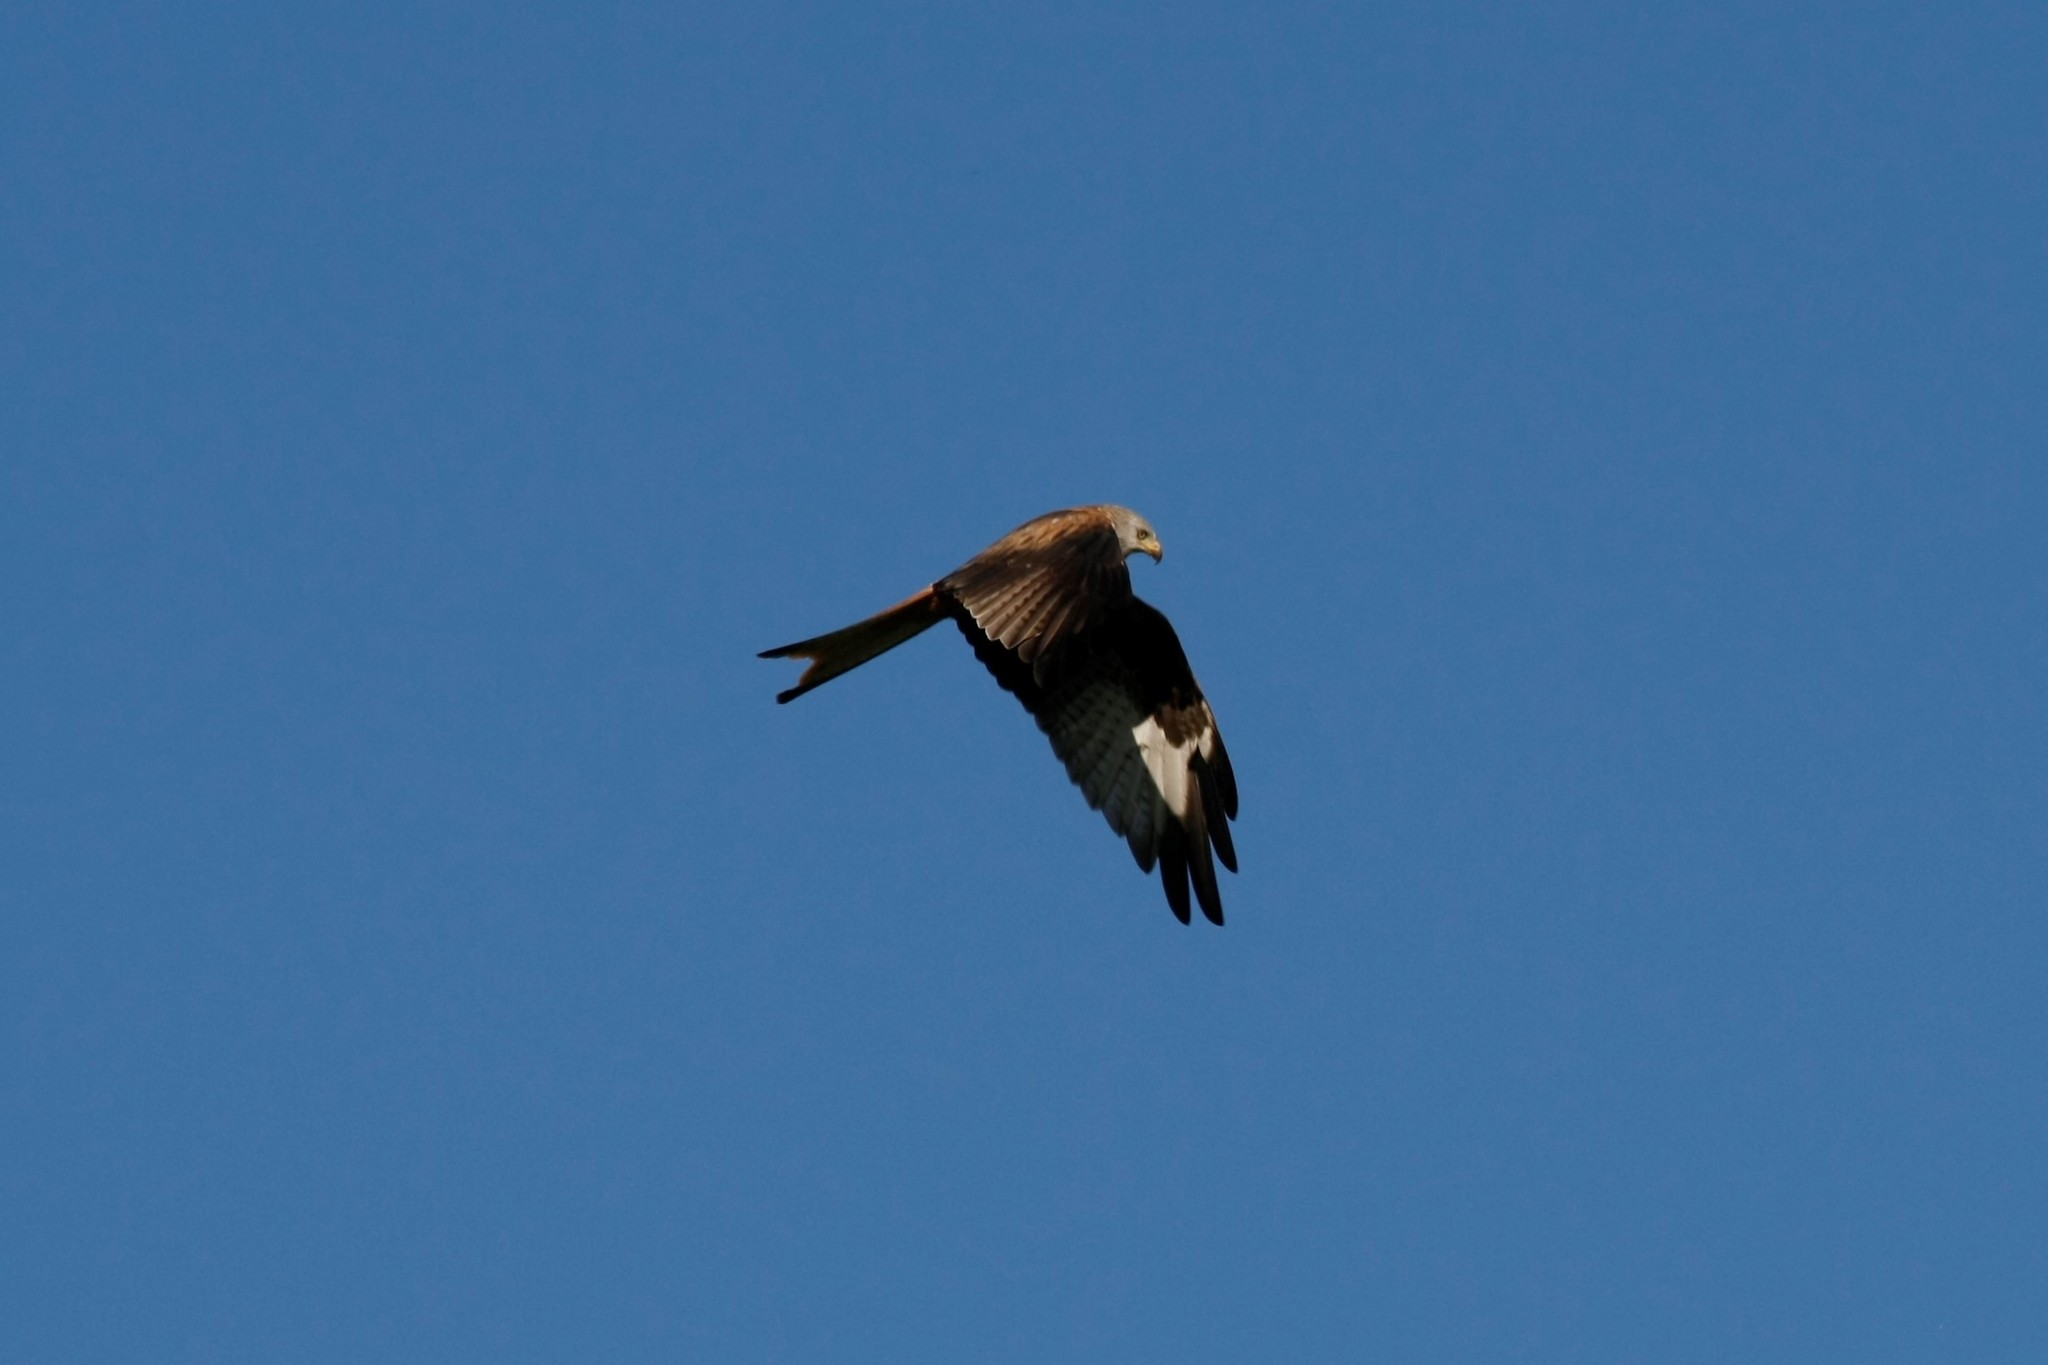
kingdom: Animalia
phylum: Chordata
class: Aves
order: Accipitriformes
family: Accipitridae
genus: Milvus
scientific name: Milvus milvus
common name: Red kite
